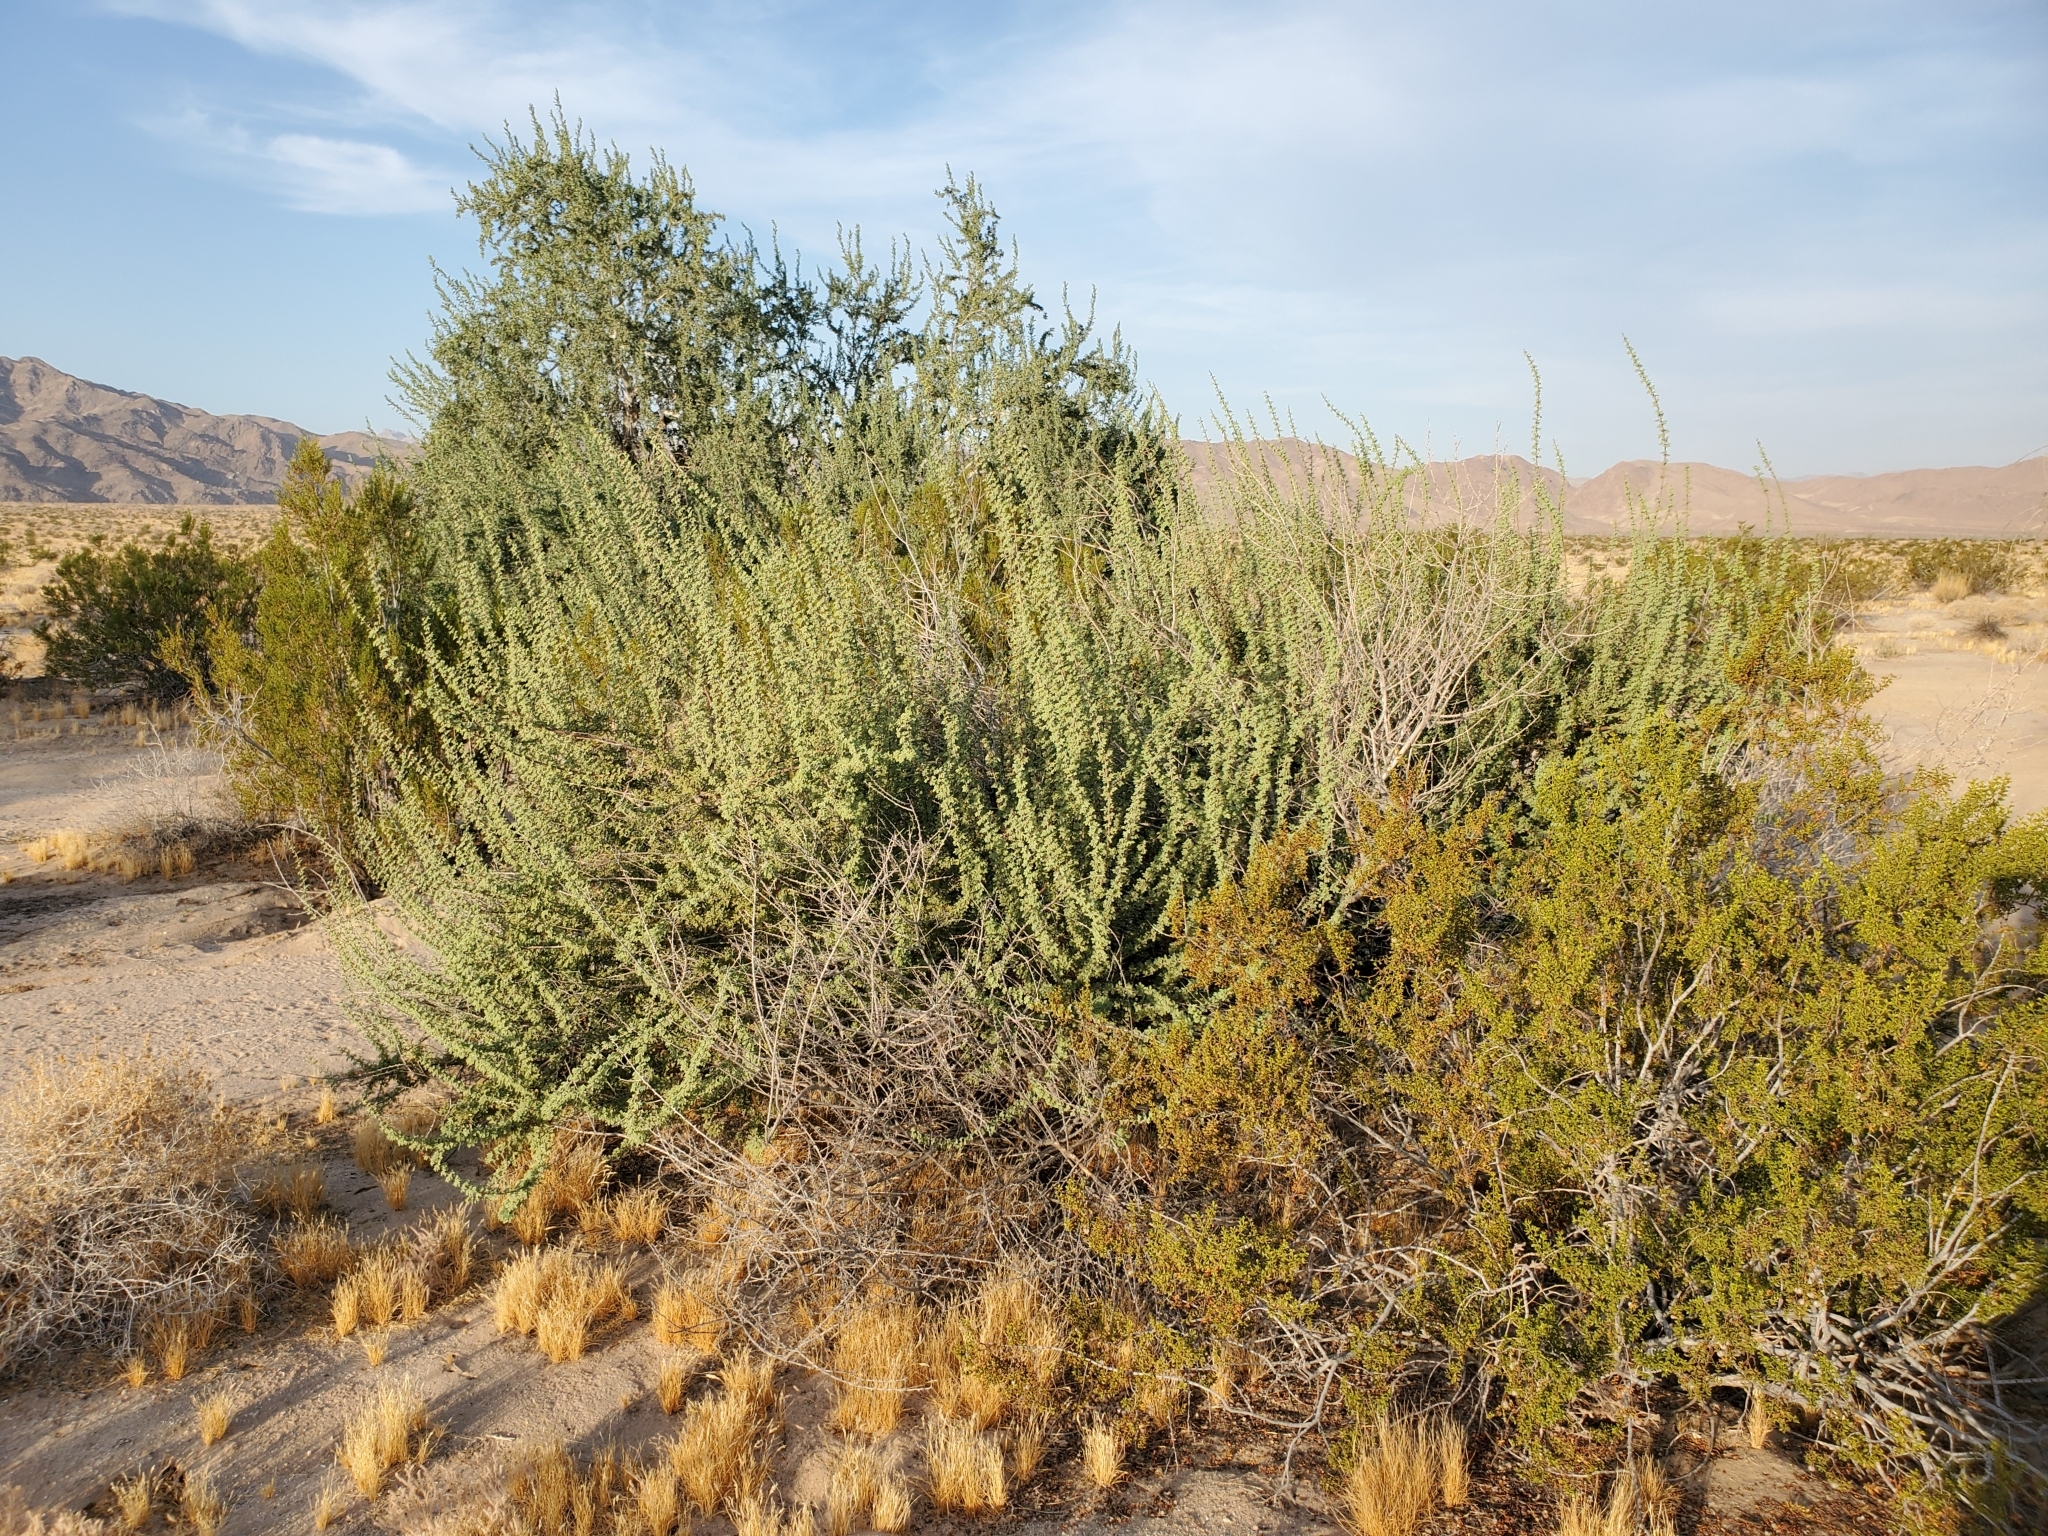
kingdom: Plantae
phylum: Tracheophyta
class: Magnoliopsida
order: Fabales
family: Fabaceae
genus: Senegalia
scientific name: Senegalia greggii
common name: Texas-mimosa
